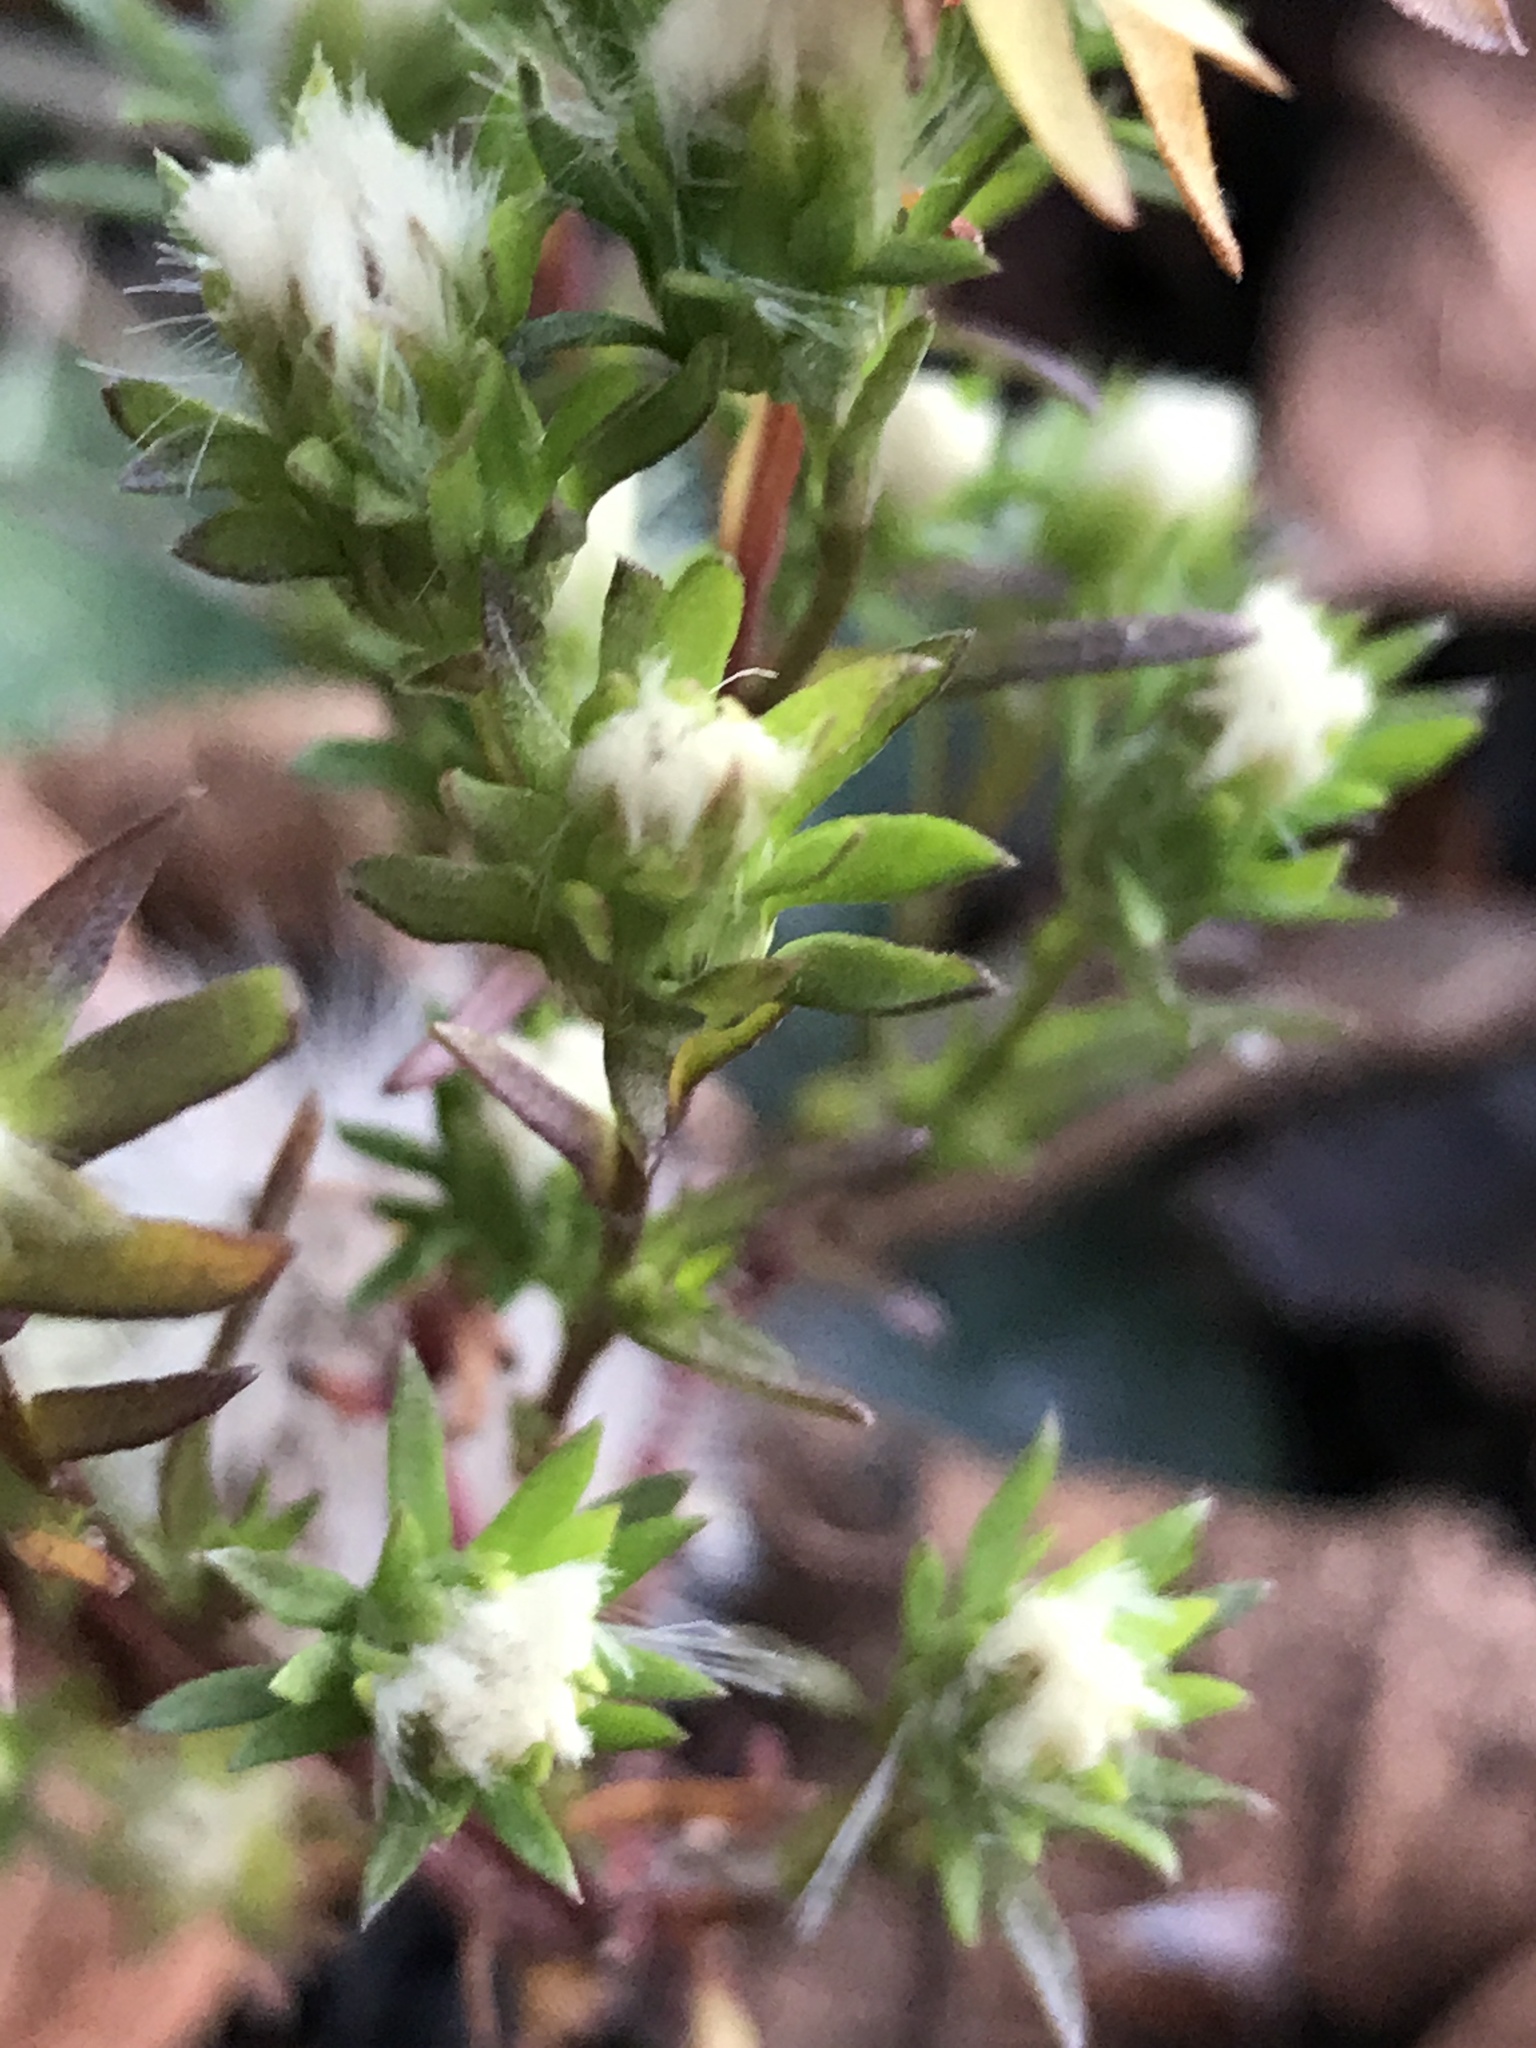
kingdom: Plantae
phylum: Tracheophyta
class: Magnoliopsida
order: Asterales
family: Asteraceae
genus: Symphyotrichum
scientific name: Symphyotrichum ciliatum
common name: Rayless annual aster
